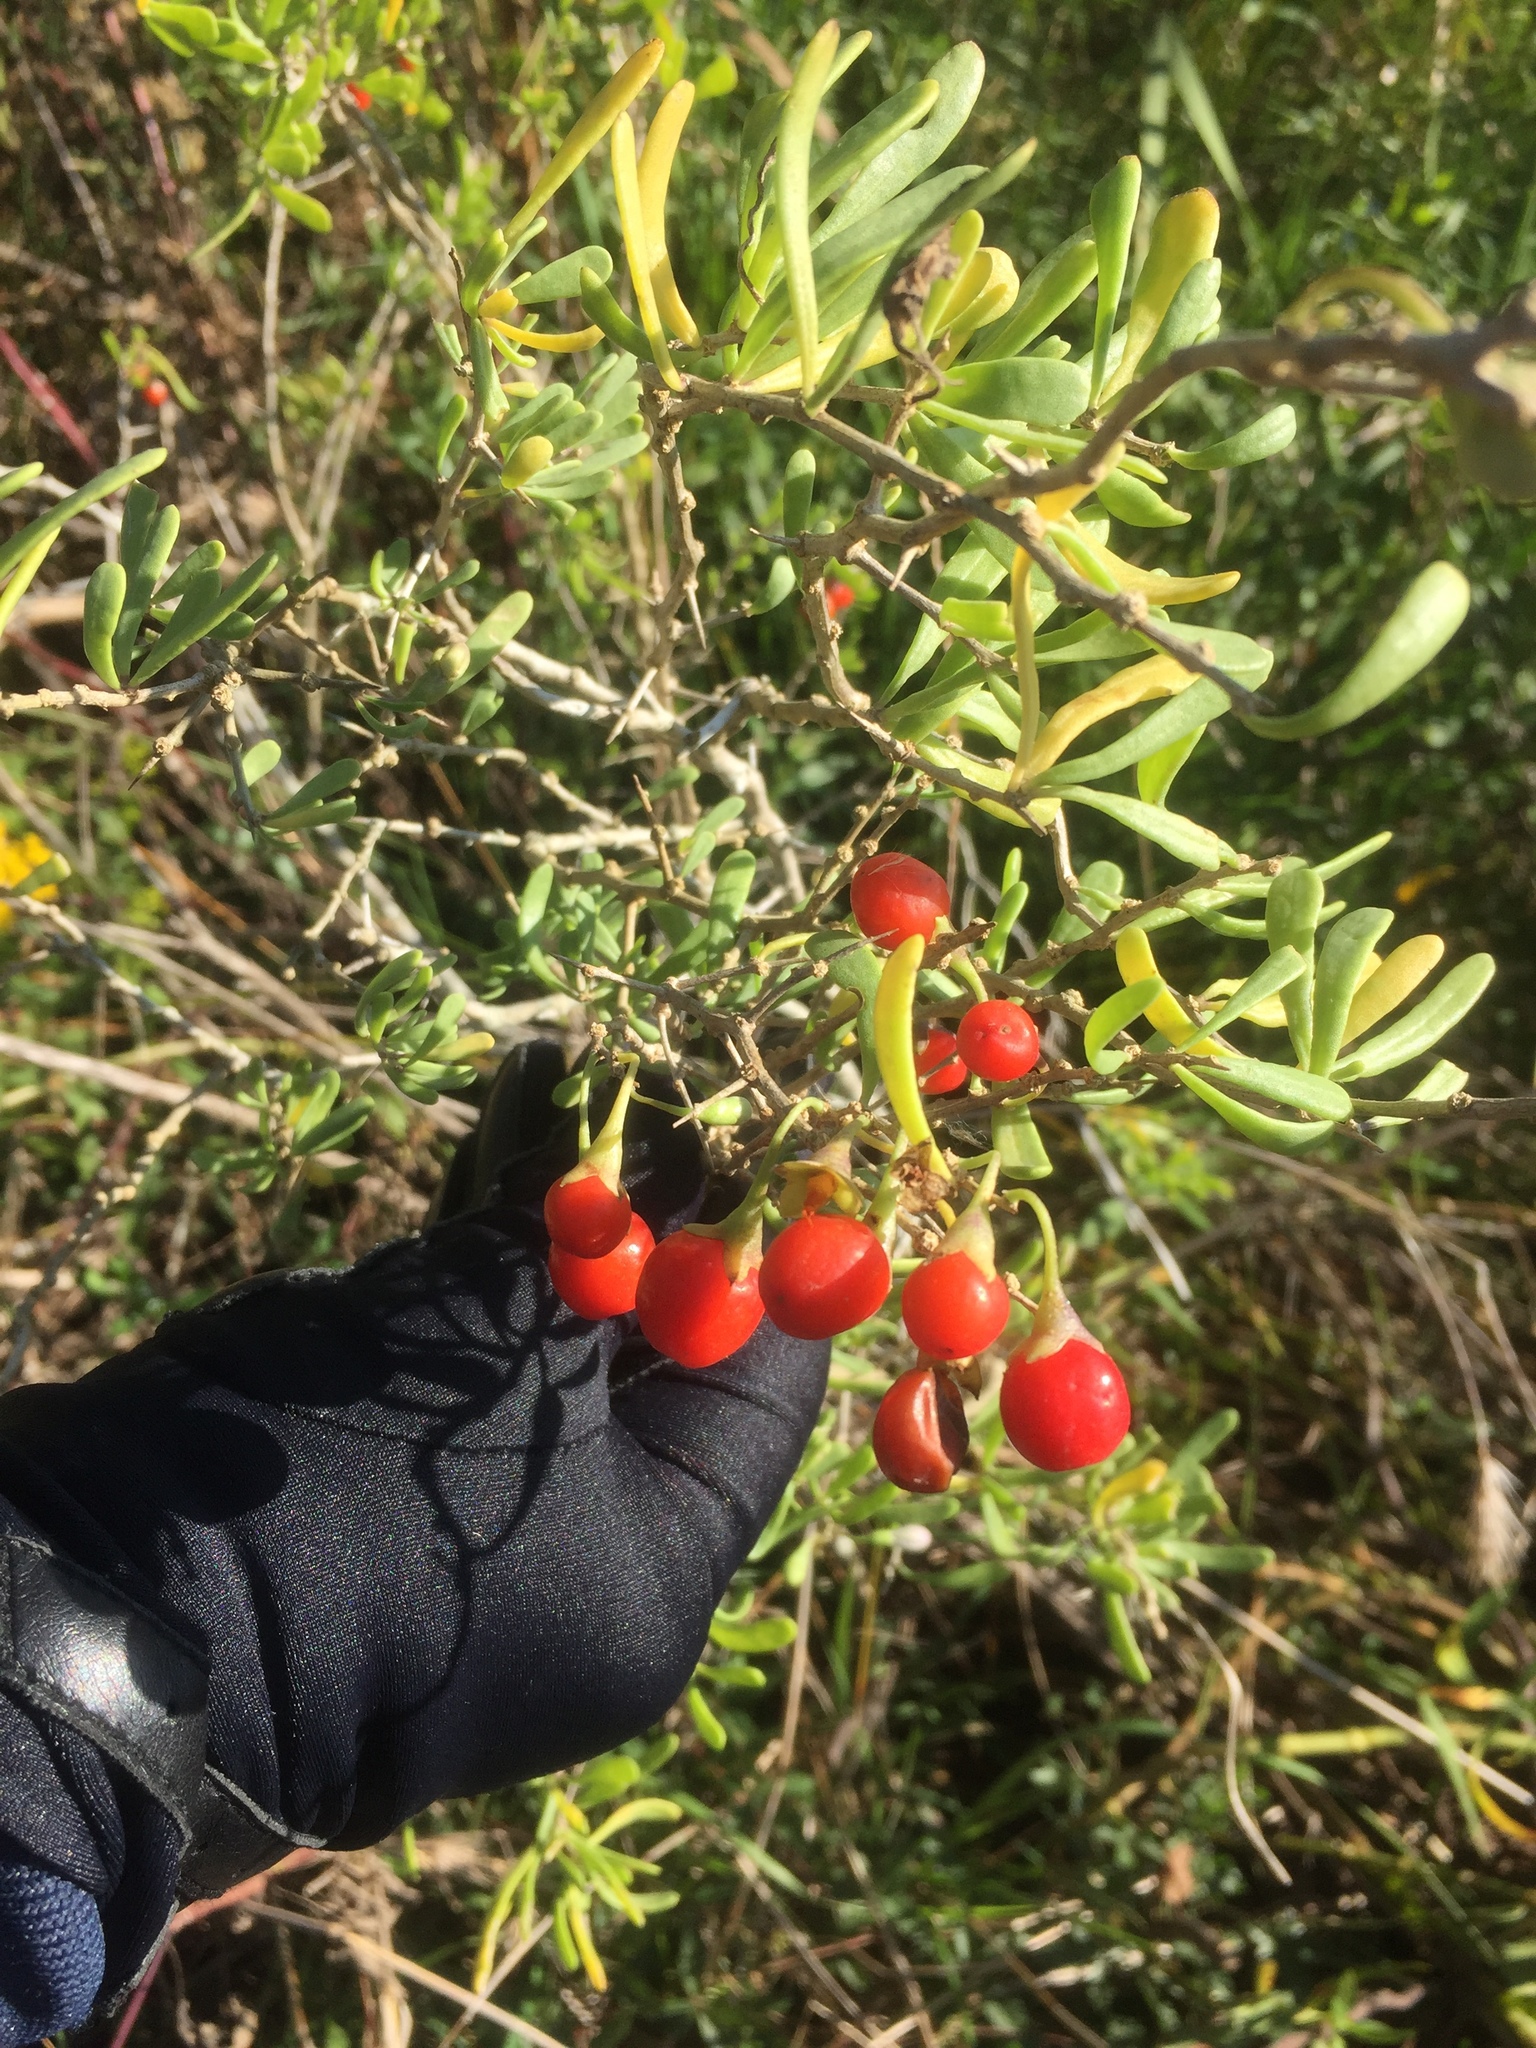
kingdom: Plantae
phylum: Tracheophyta
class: Magnoliopsida
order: Solanales
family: Solanaceae
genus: Lycium
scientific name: Lycium carolinianum
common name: Christmasberry
